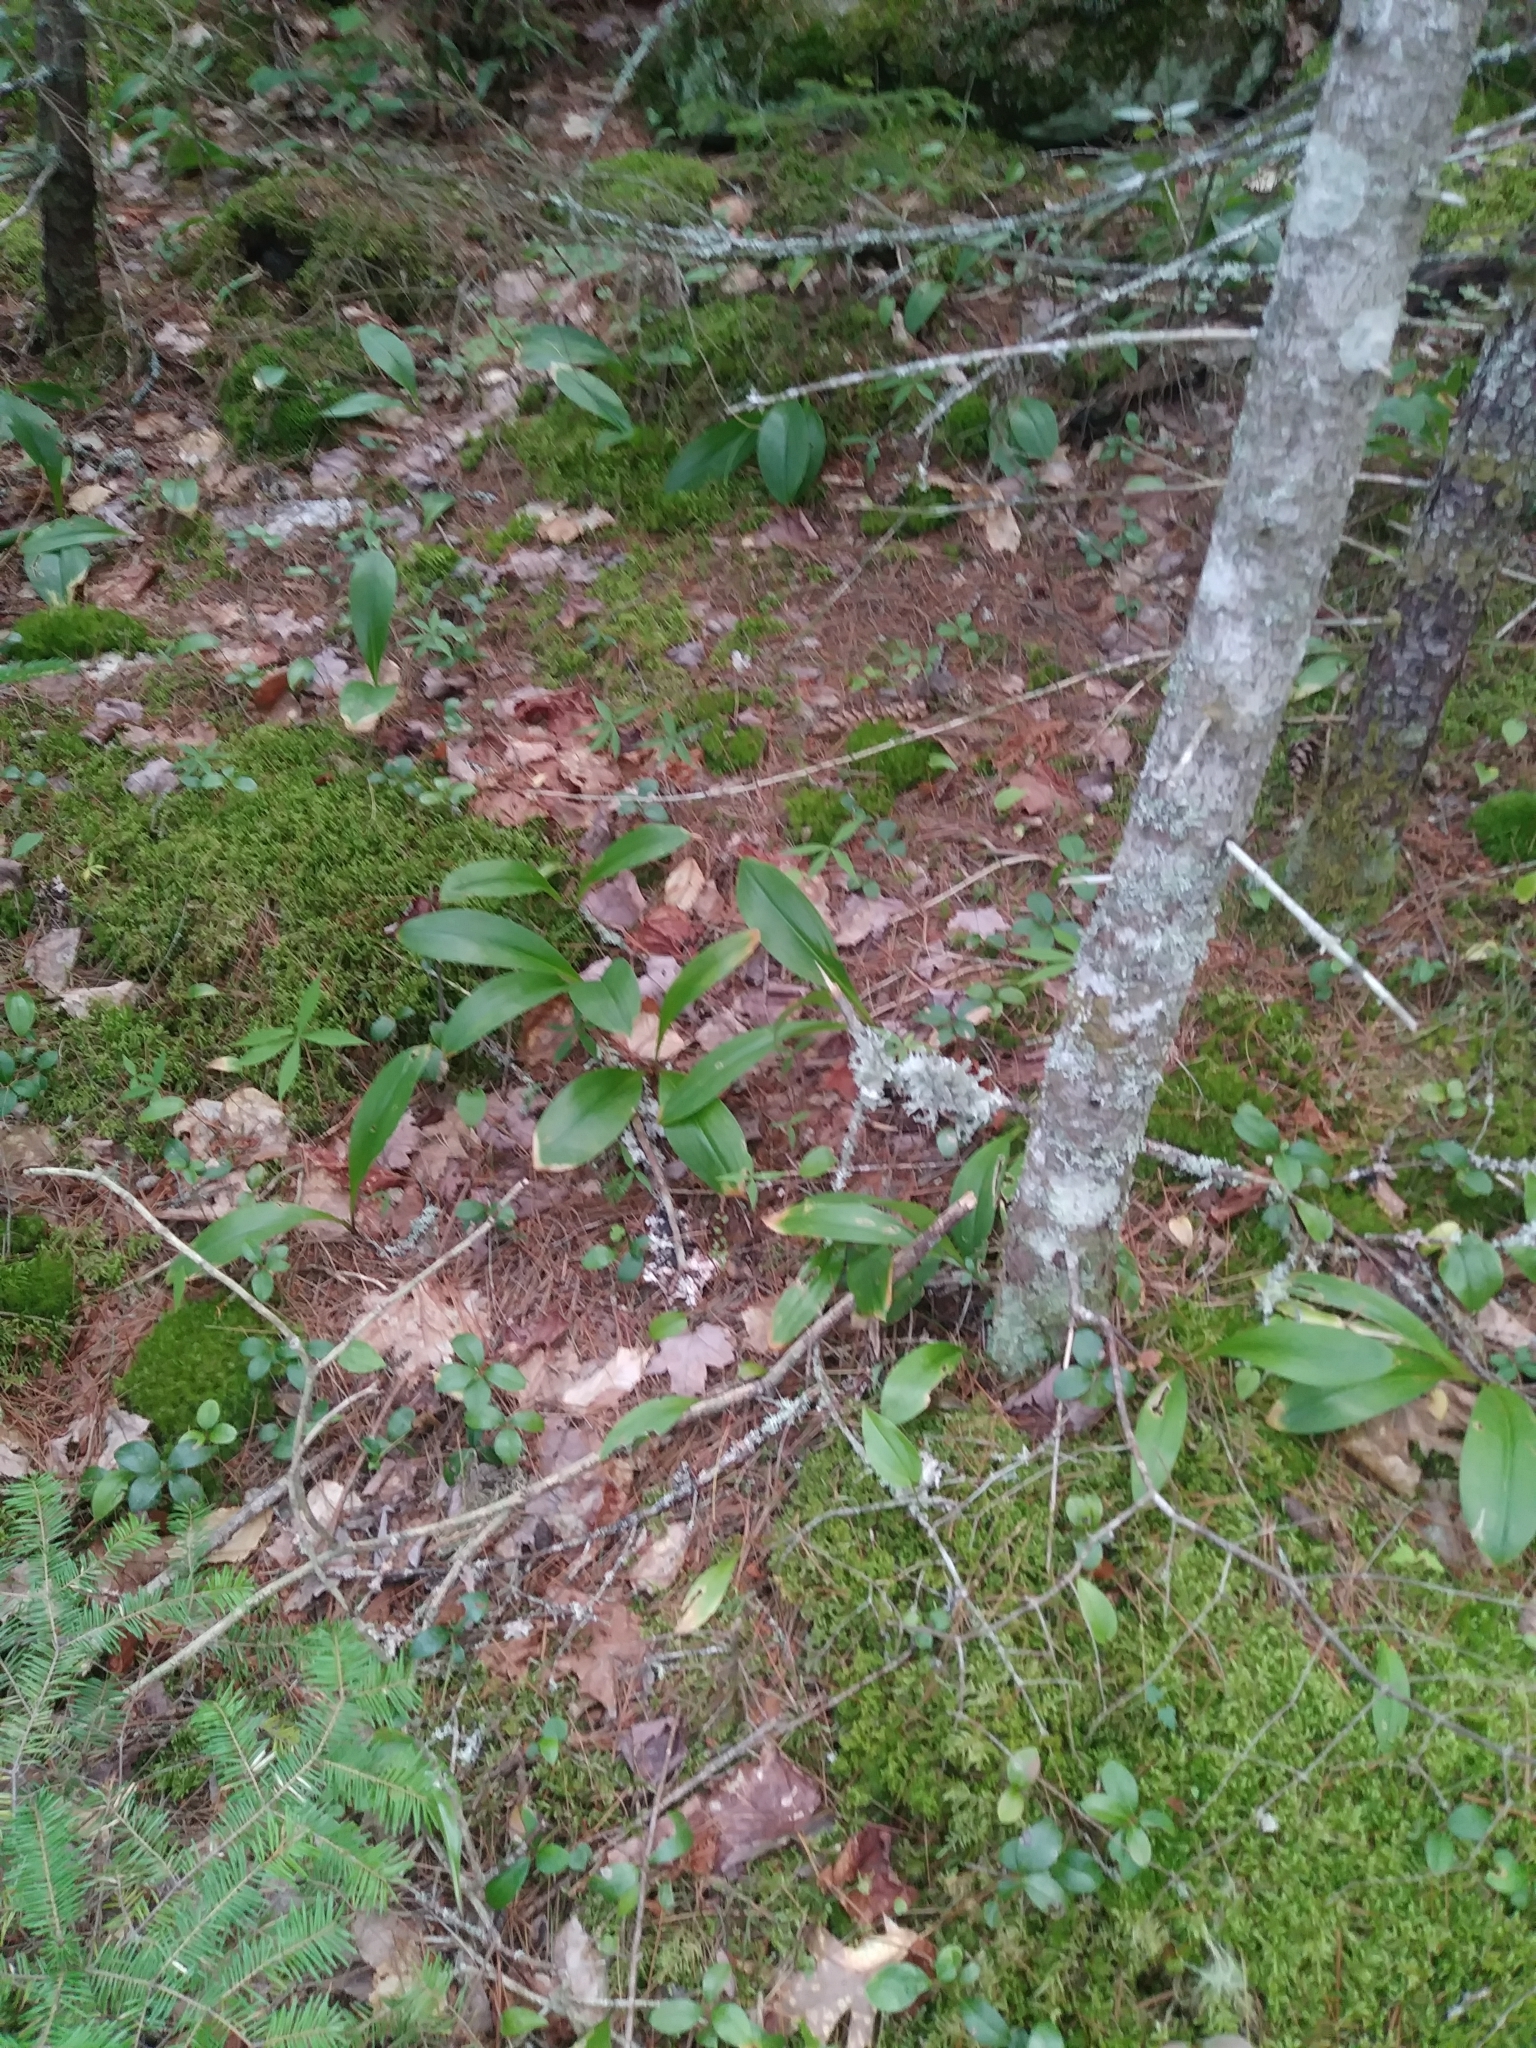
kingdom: Plantae
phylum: Tracheophyta
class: Liliopsida
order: Liliales
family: Liliaceae
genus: Clintonia
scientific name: Clintonia borealis
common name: Yellow clintonia
